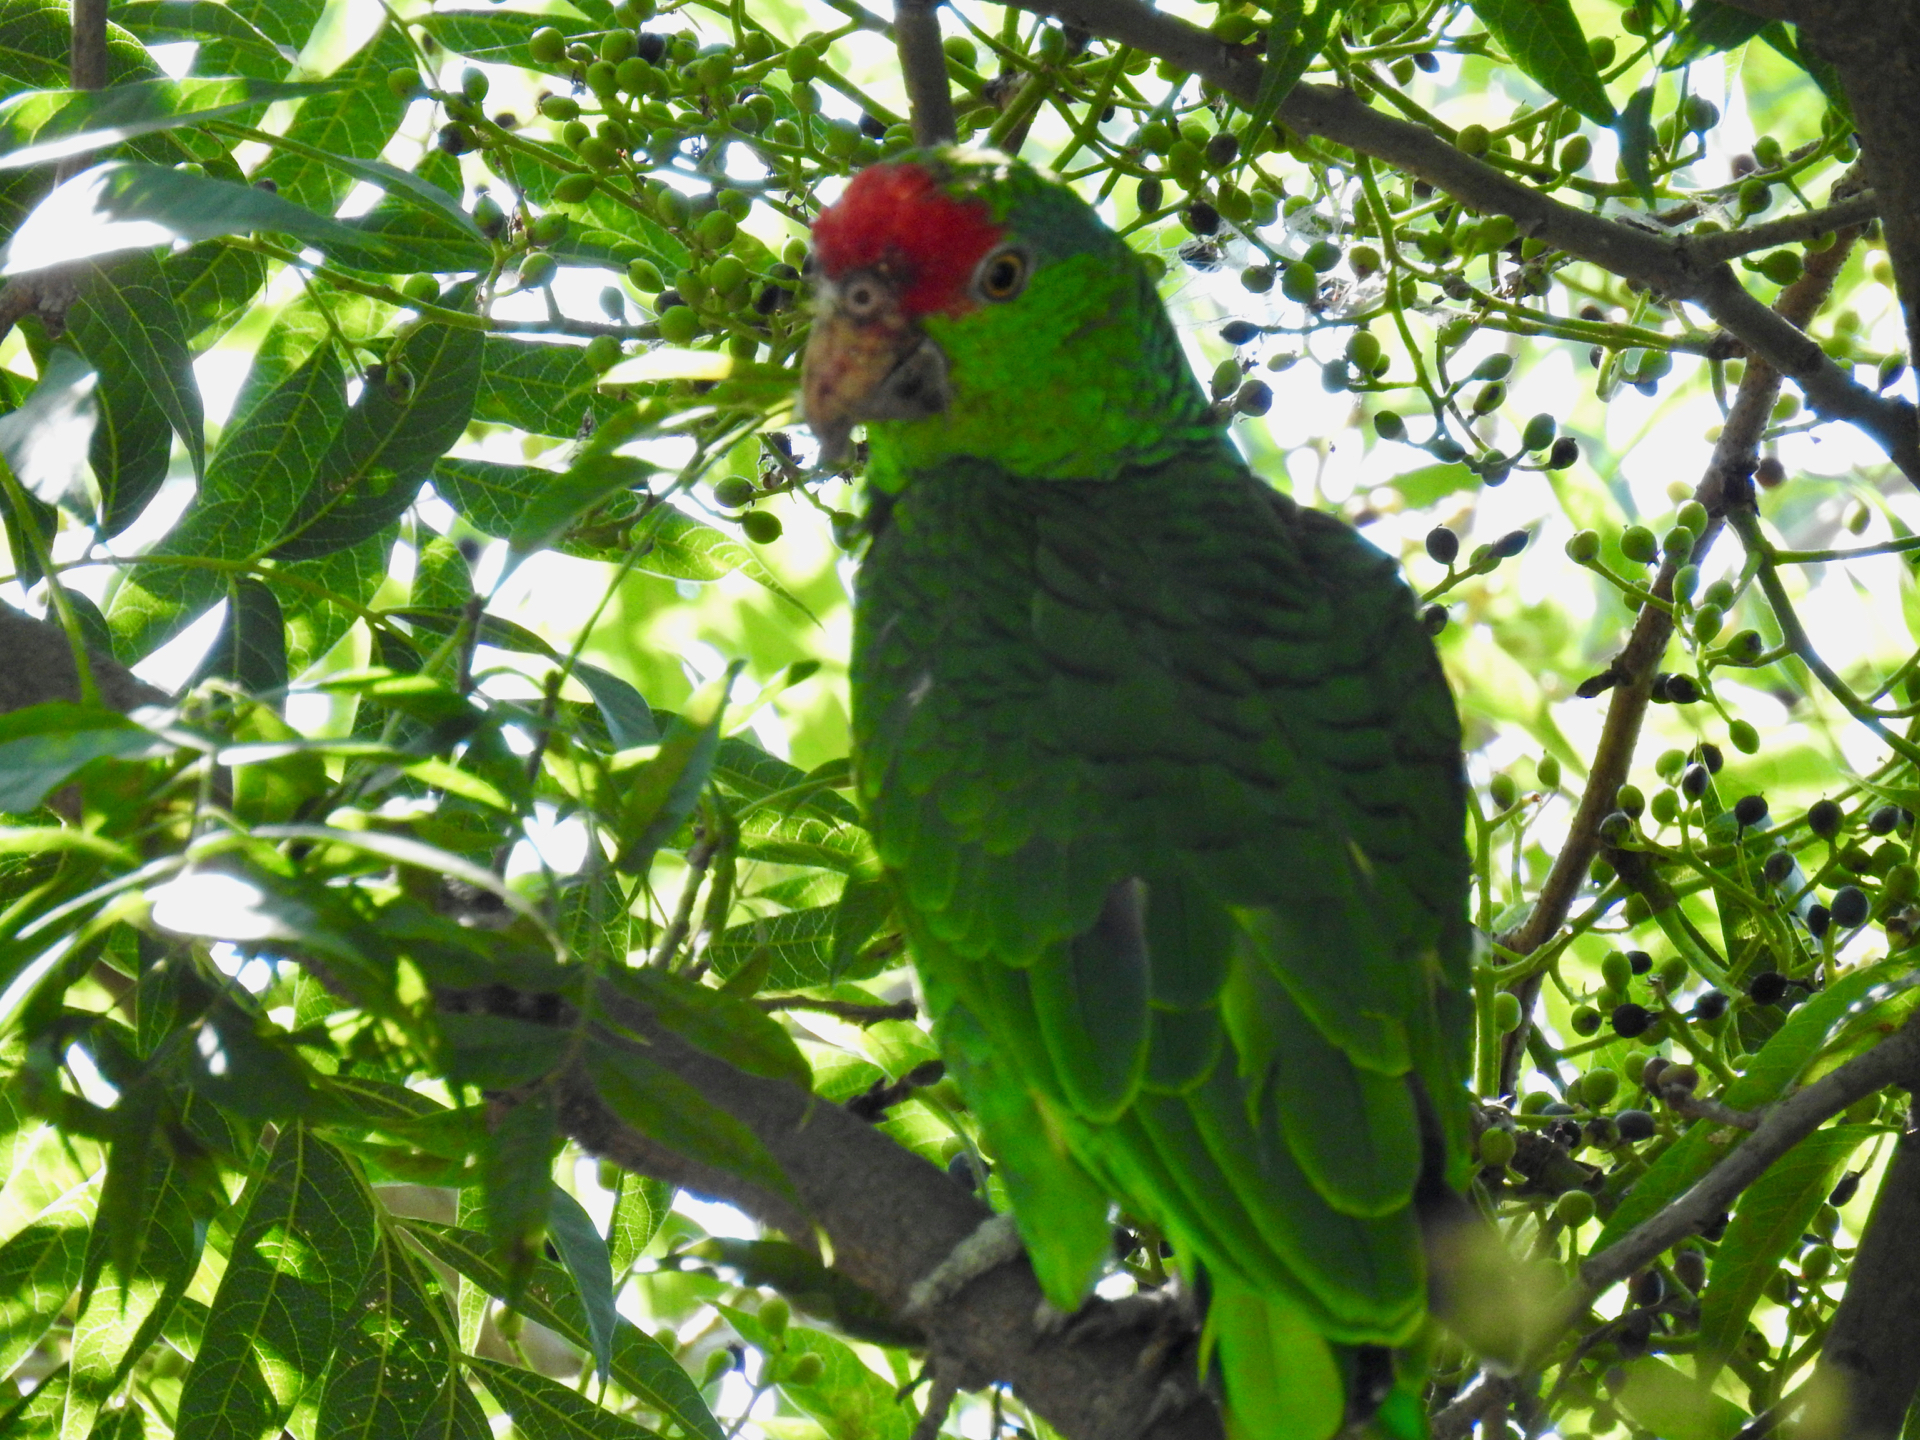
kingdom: Animalia
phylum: Chordata
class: Aves
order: Psittaciformes
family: Psittacidae
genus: Amazona
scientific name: Amazona viridigenalis
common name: Red-crowned amazon
